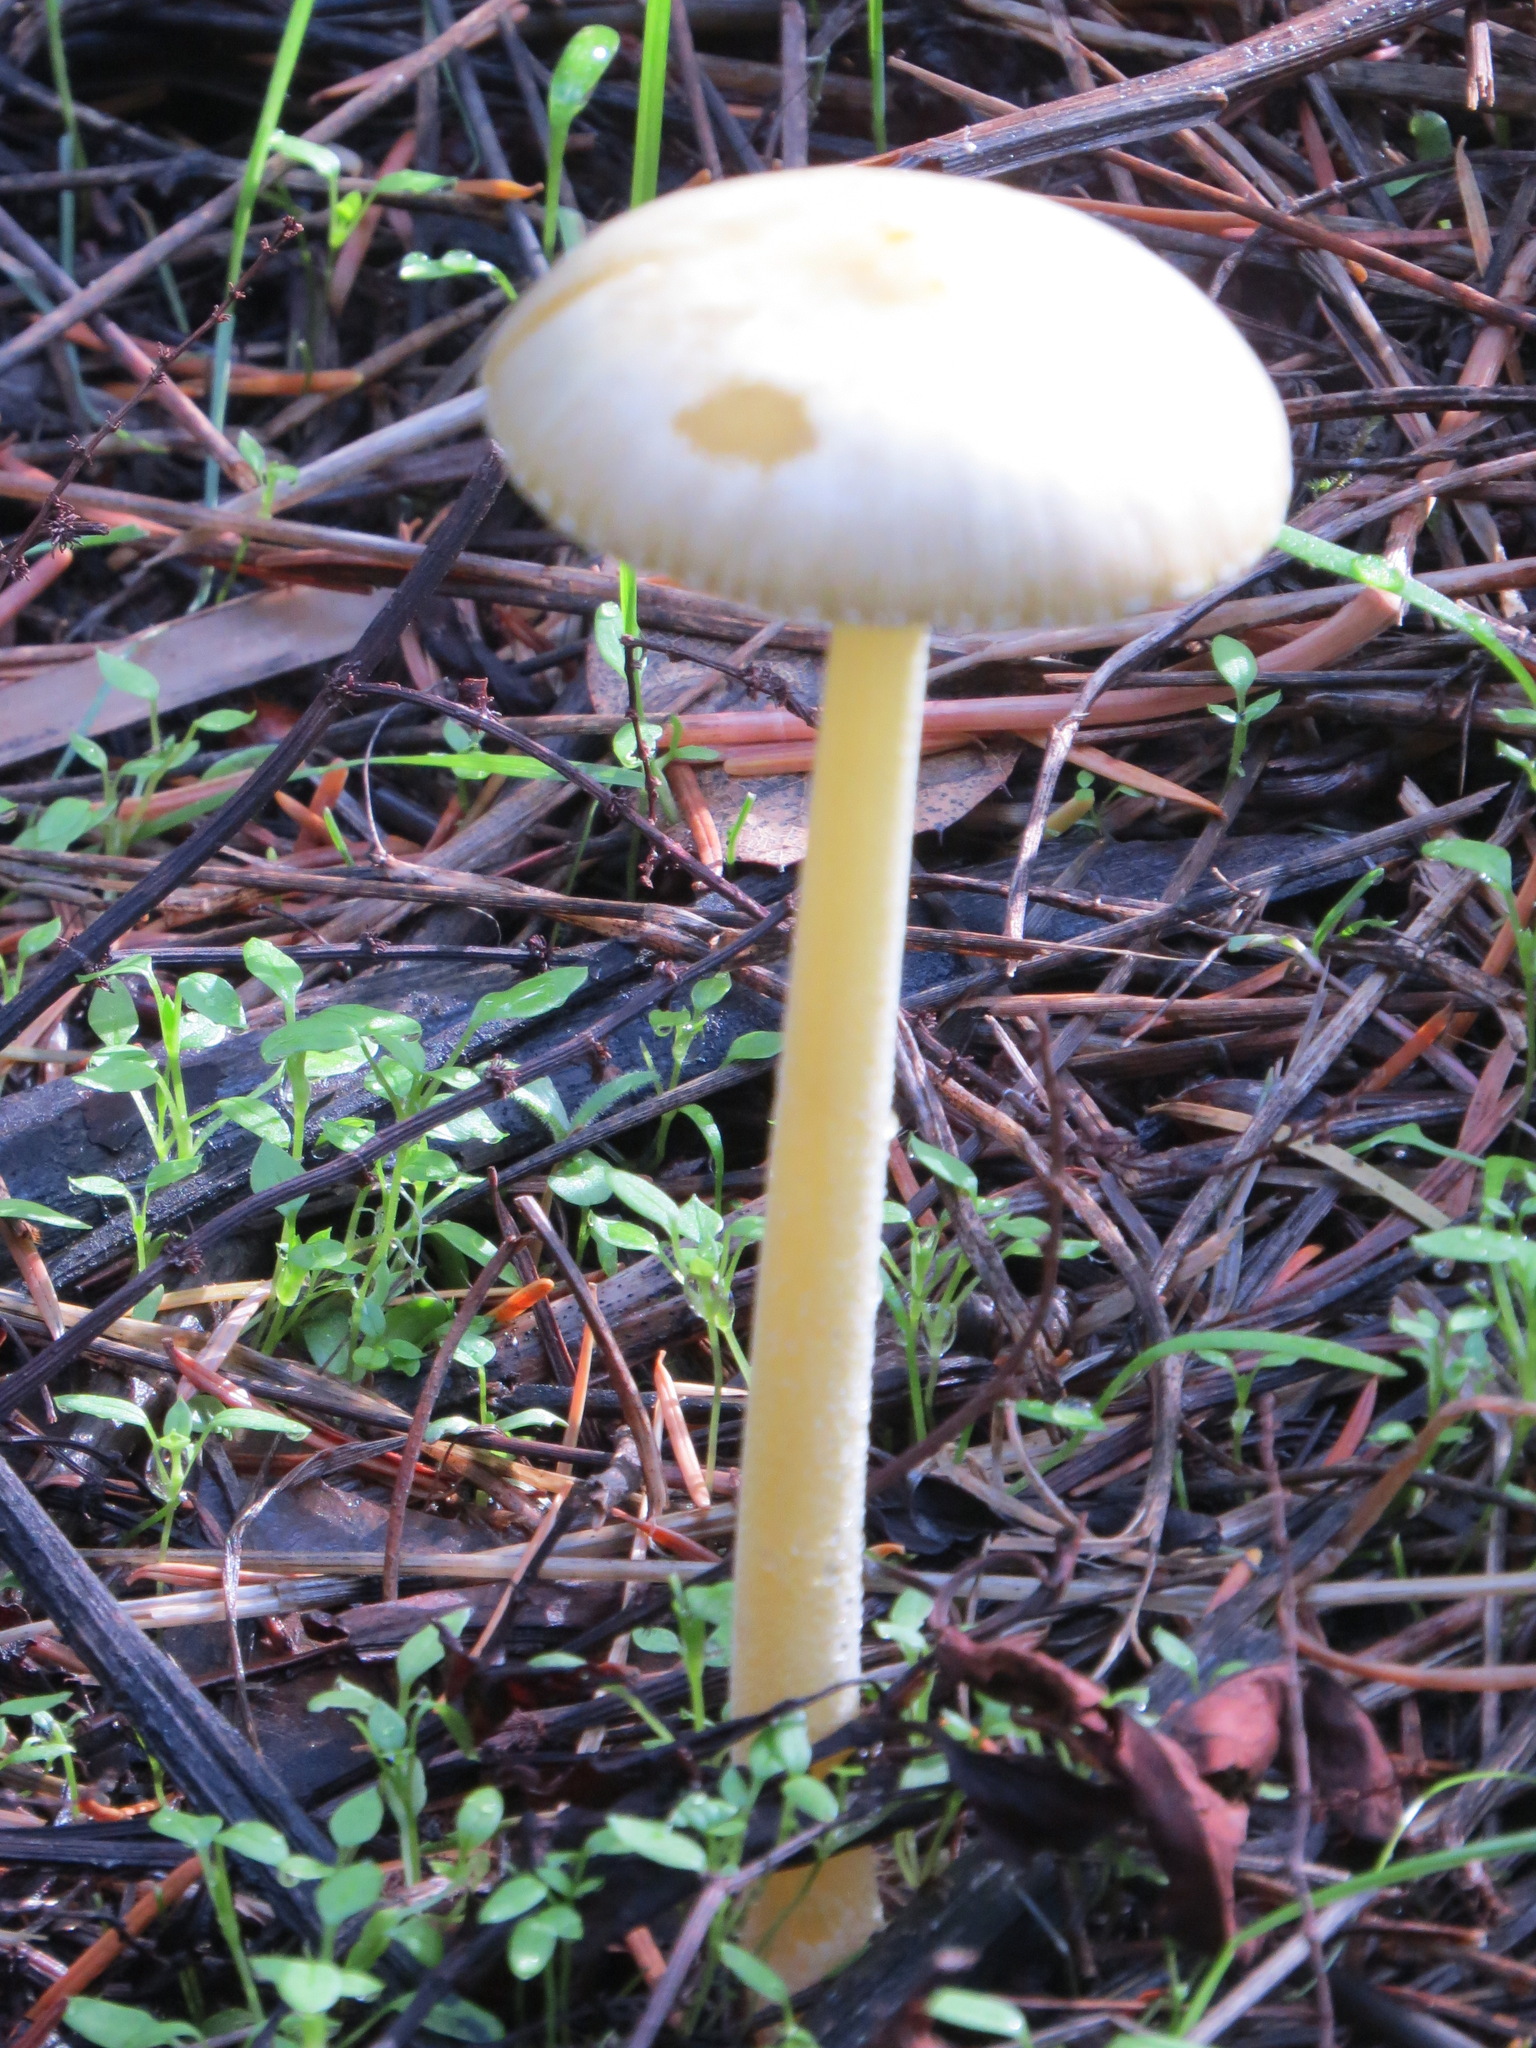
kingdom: Fungi
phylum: Basidiomycota
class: Agaricomycetes
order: Agaricales
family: Bolbitiaceae
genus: Bolbitius
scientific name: Bolbitius titubans
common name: Yellow fieldcap
